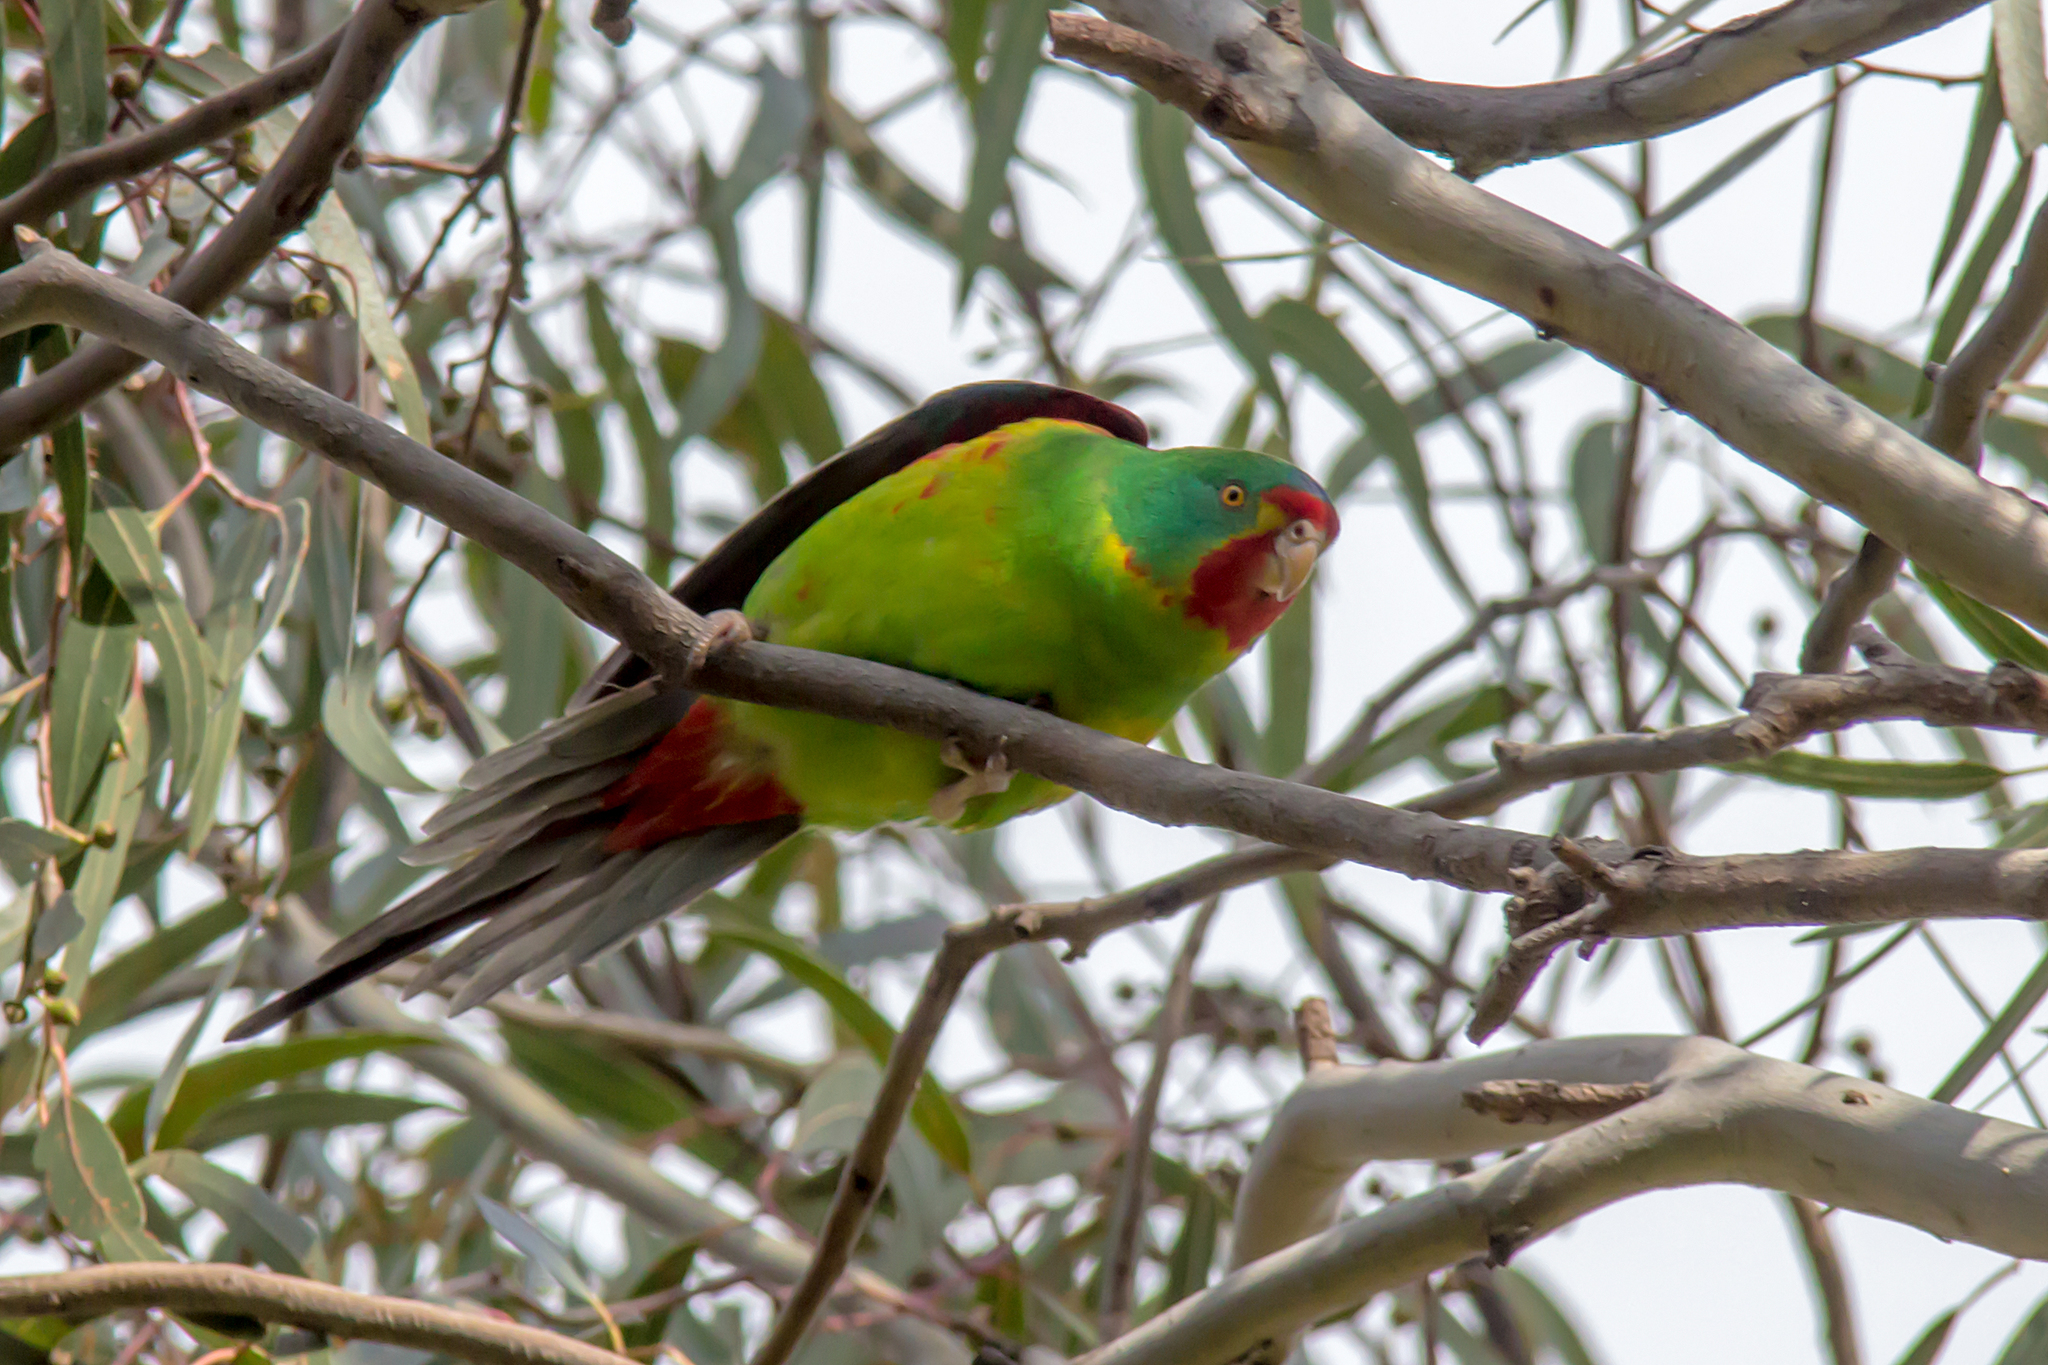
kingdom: Animalia
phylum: Chordata
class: Aves
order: Psittaciformes
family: Psittacidae
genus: Lathamus
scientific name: Lathamus discolor
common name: Swift parrot
